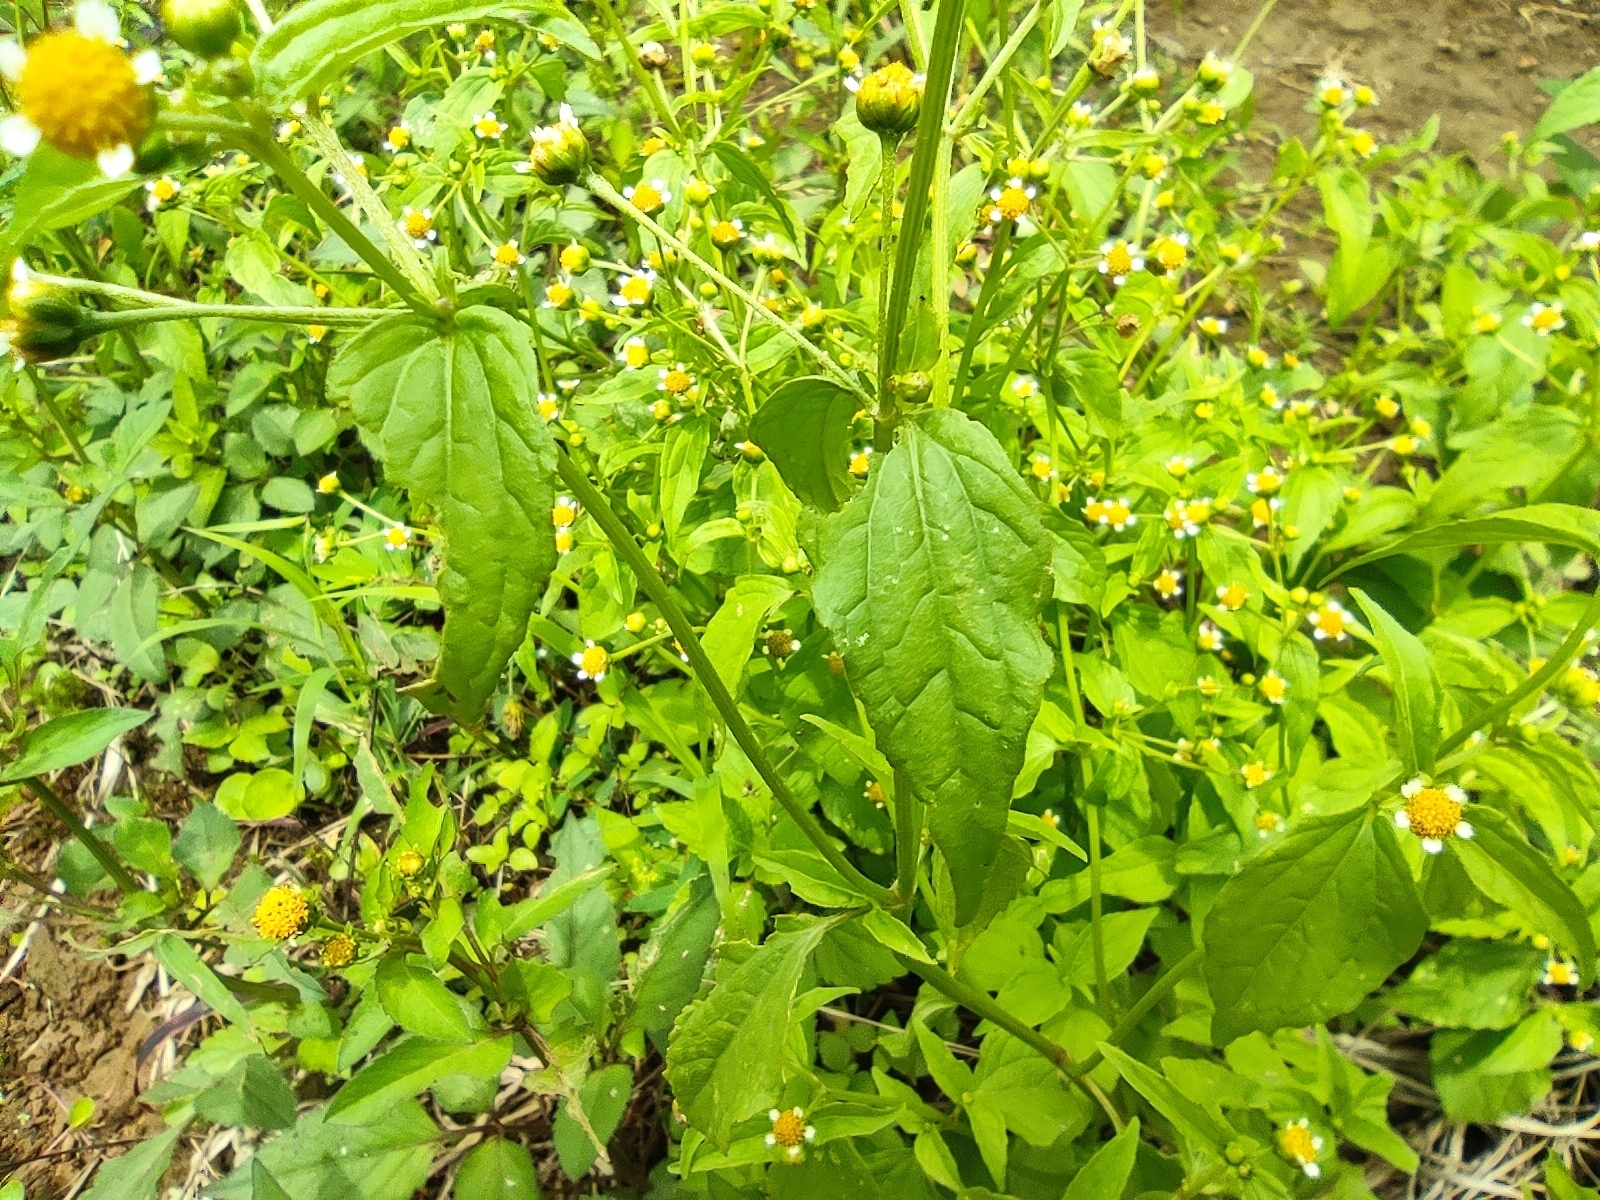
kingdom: Plantae
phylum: Tracheophyta
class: Magnoliopsida
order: Asterales
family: Asteraceae
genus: Galinsoga
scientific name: Galinsoga parviflora
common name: Gallant soldier
